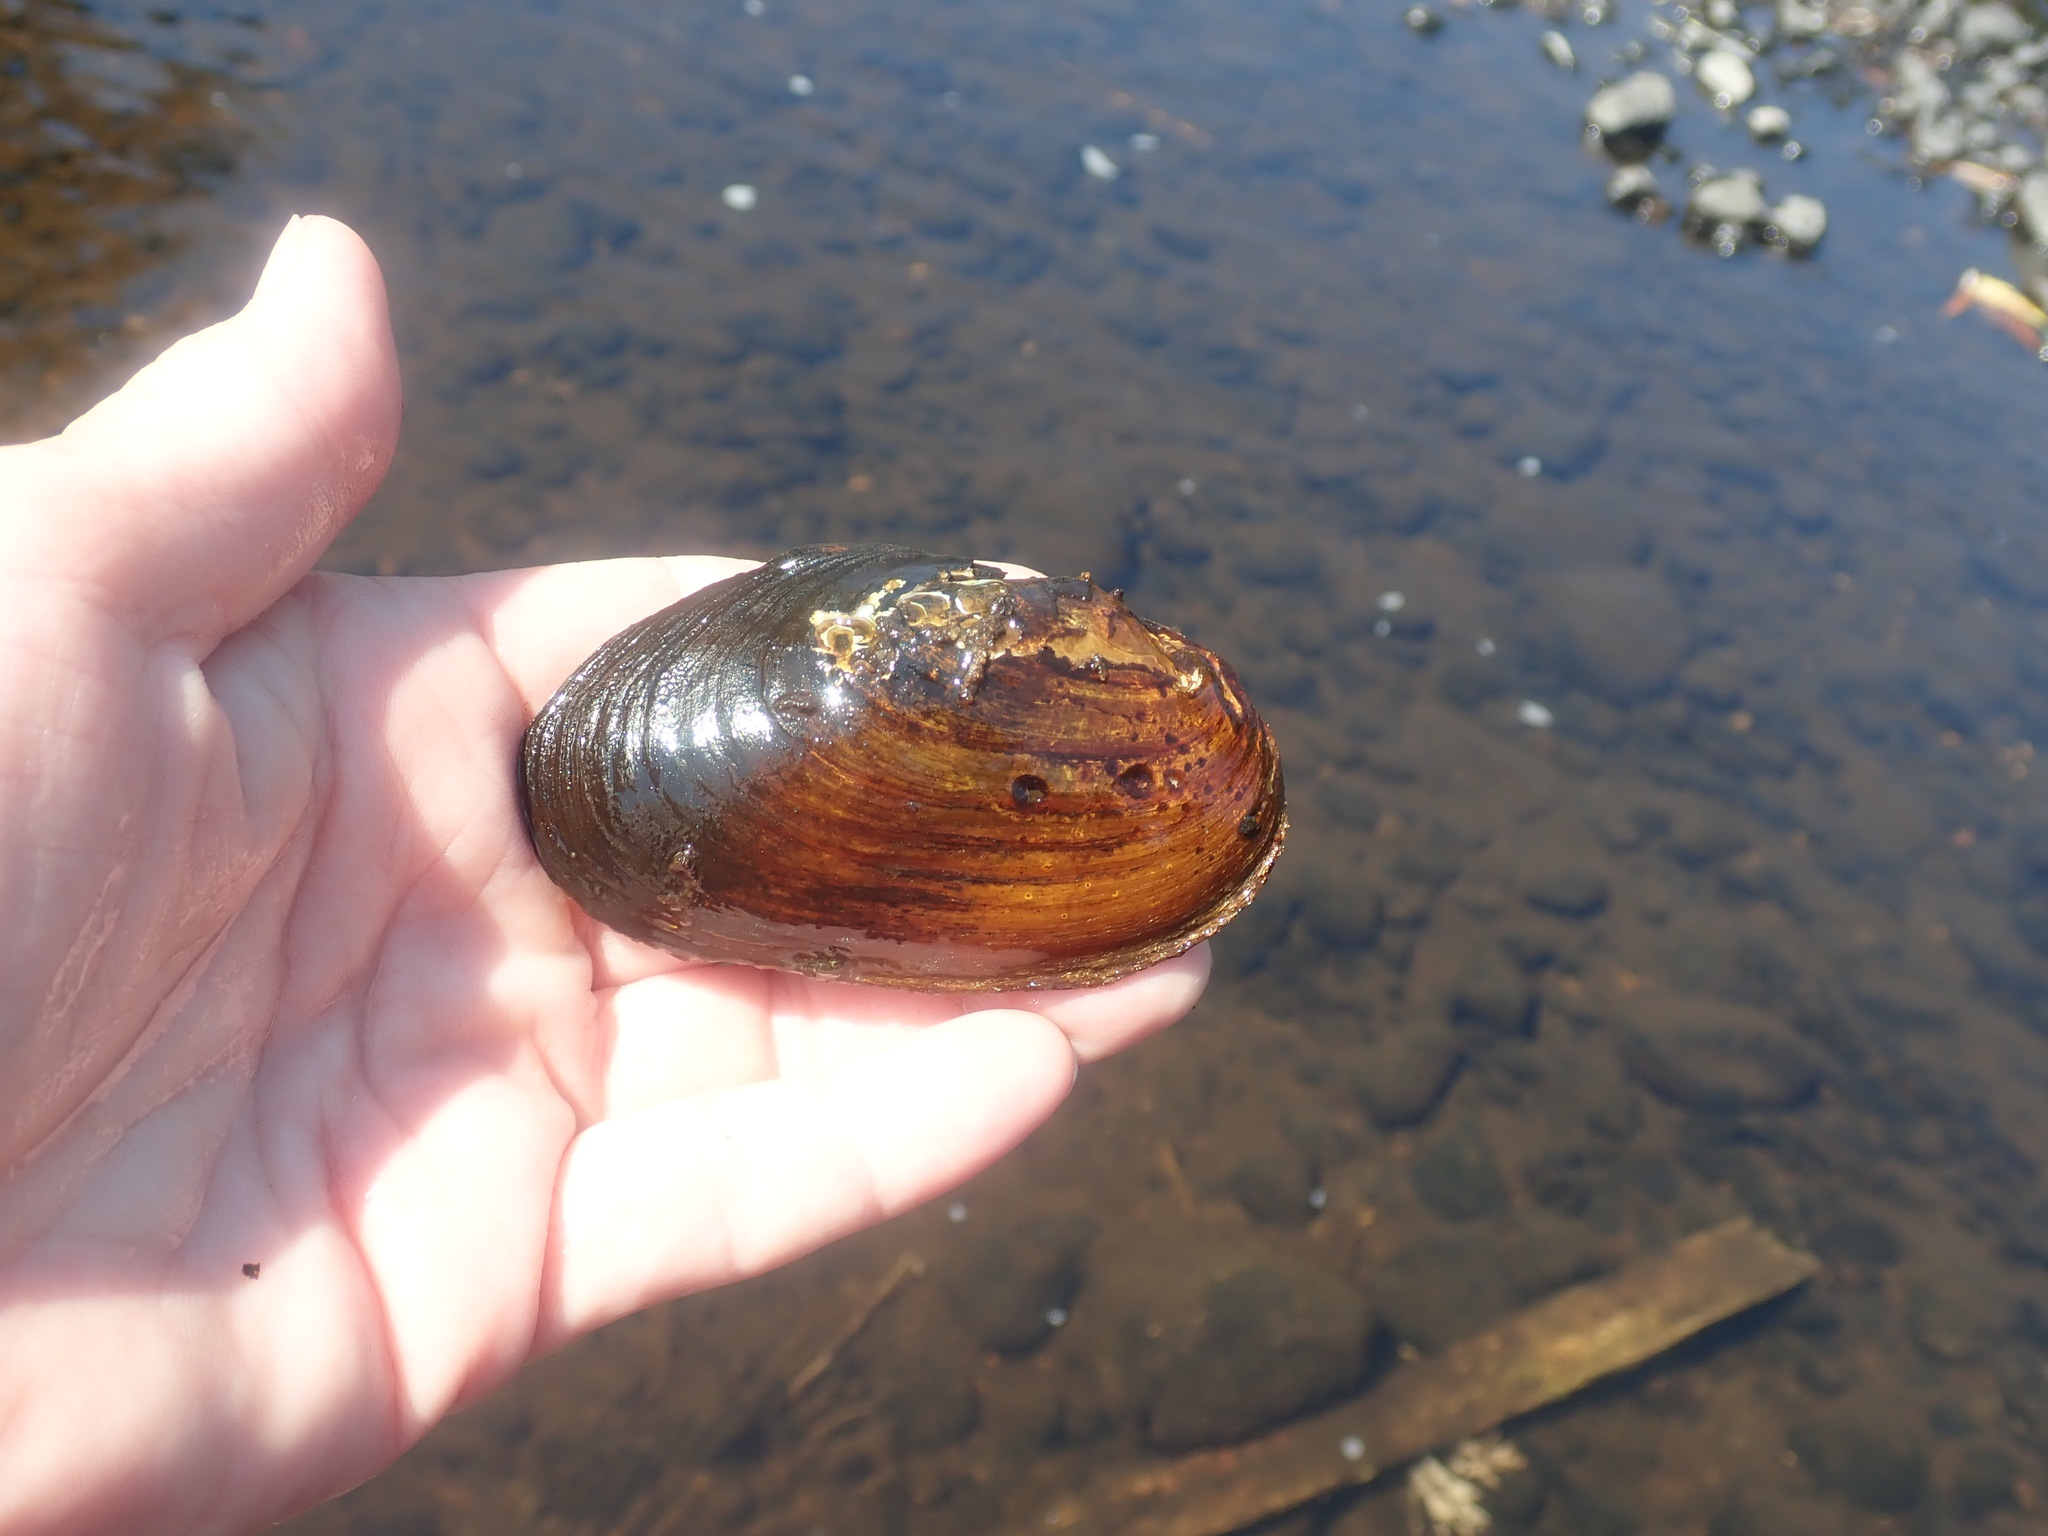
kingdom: Animalia
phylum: Mollusca
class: Bivalvia
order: Unionida
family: Unionidae
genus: Elliptio
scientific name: Elliptio complanata
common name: Eastern elliptio
